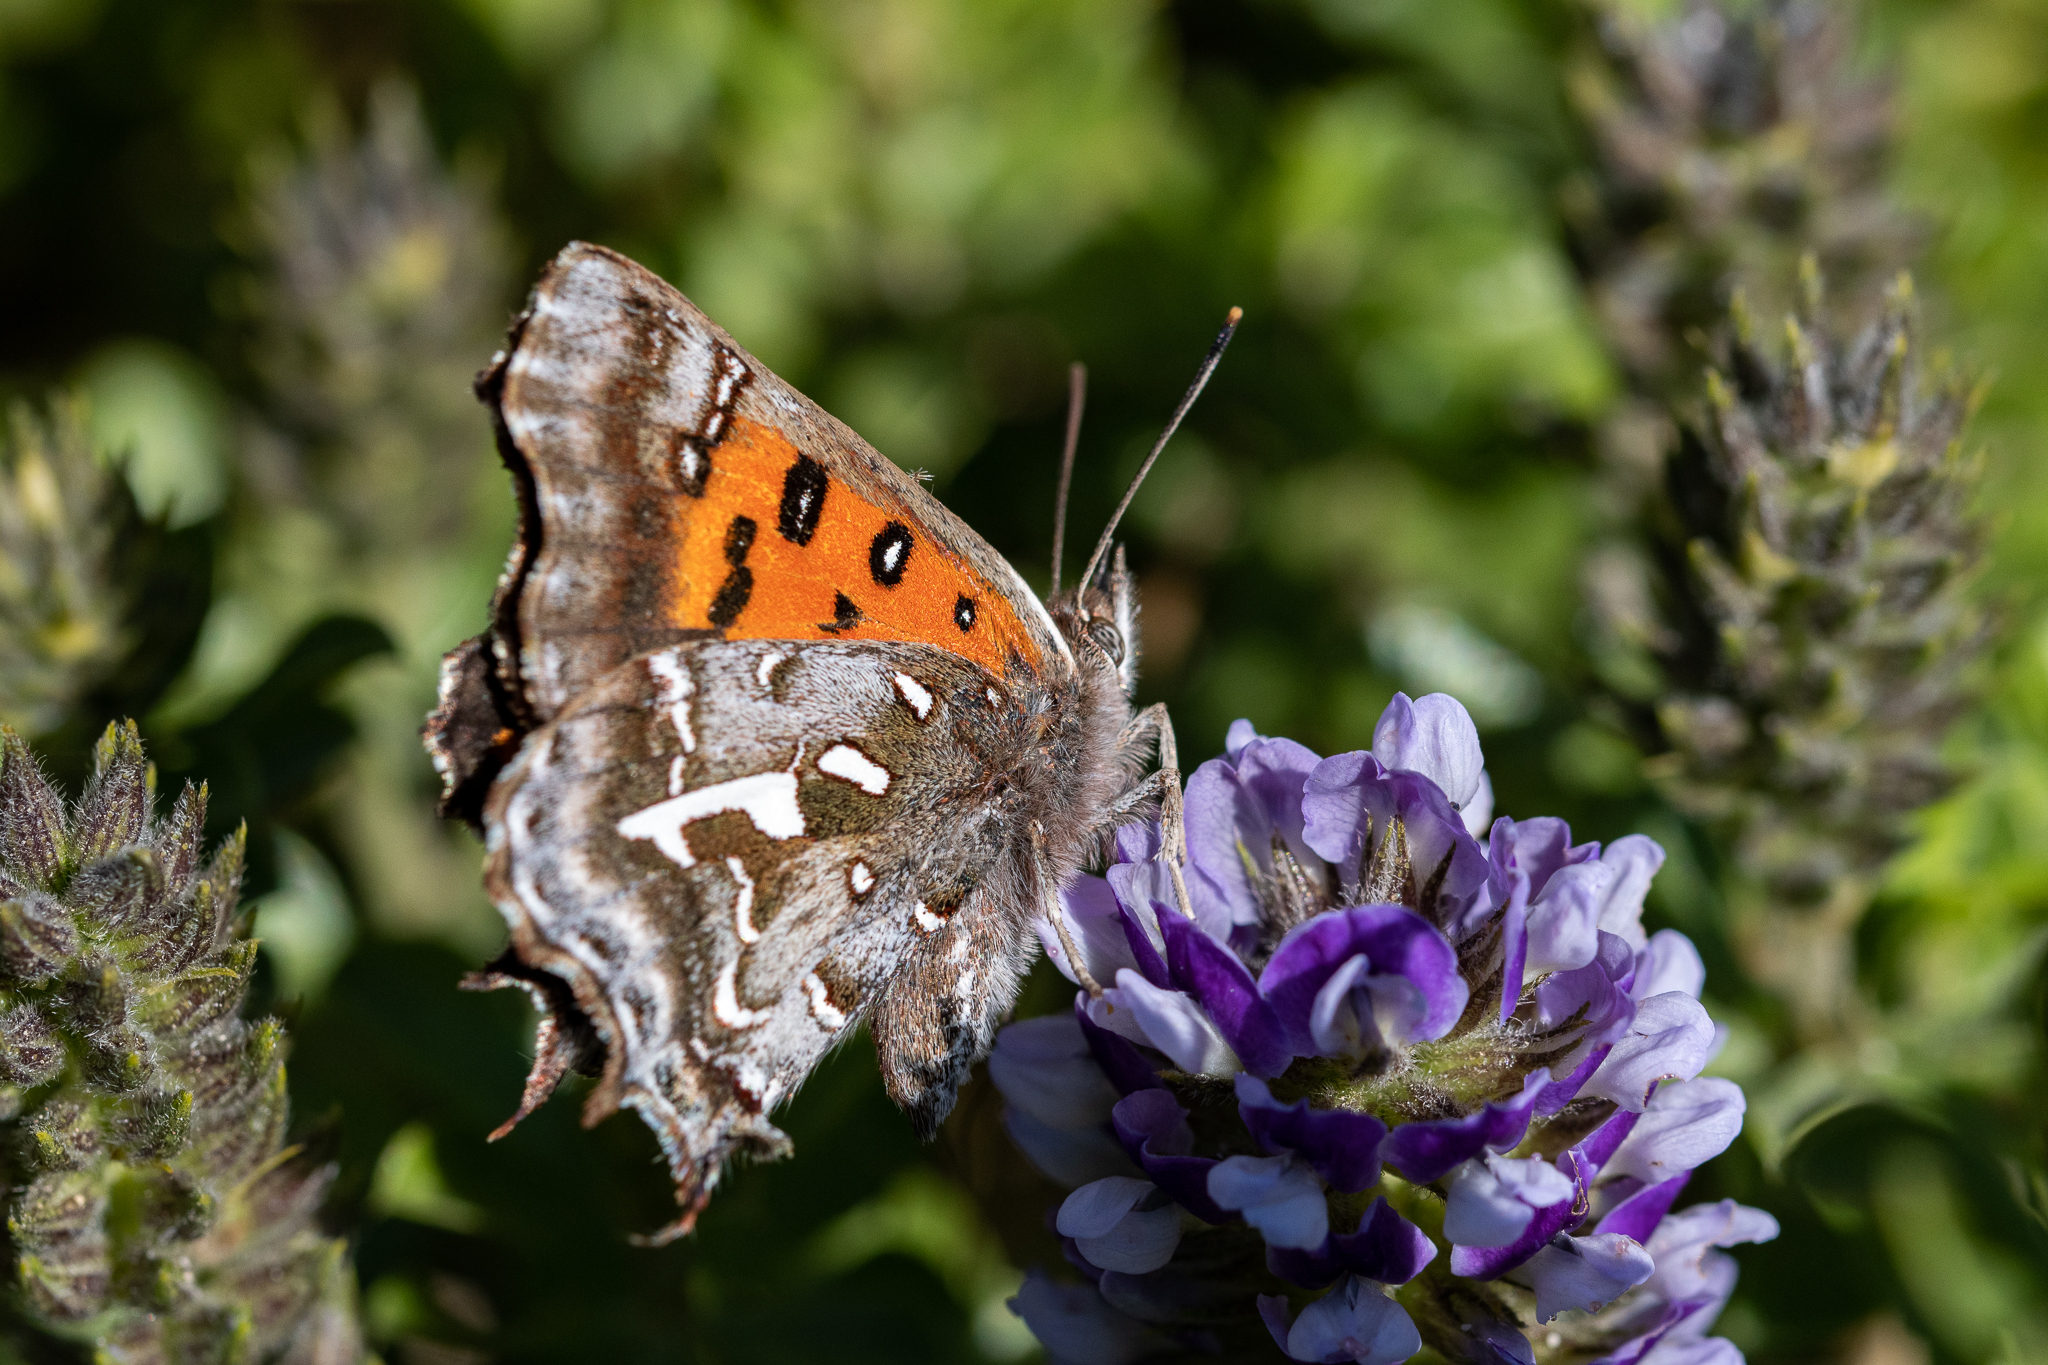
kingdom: Animalia
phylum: Arthropoda
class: Insecta
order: Lepidoptera
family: Lycaenidae
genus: Phasis
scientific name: Phasis thero
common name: Silver arrowhead
